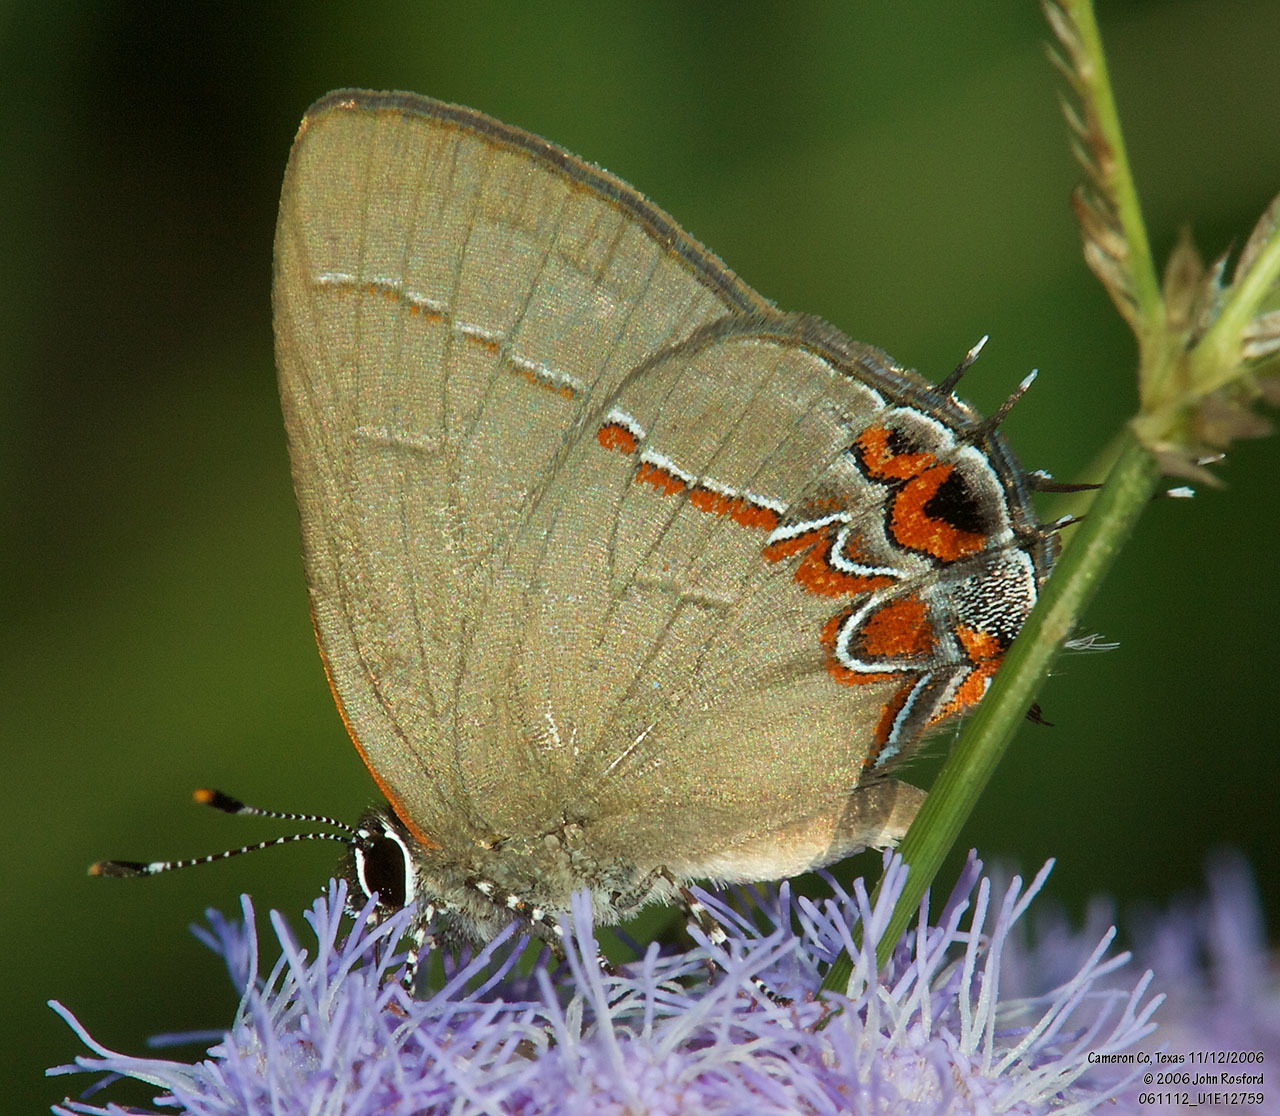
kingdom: Animalia
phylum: Arthropoda
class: Insecta
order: Lepidoptera
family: Lycaenidae
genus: Calycopis
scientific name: Calycopis isobeon
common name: Dusky-blue groundstreak
